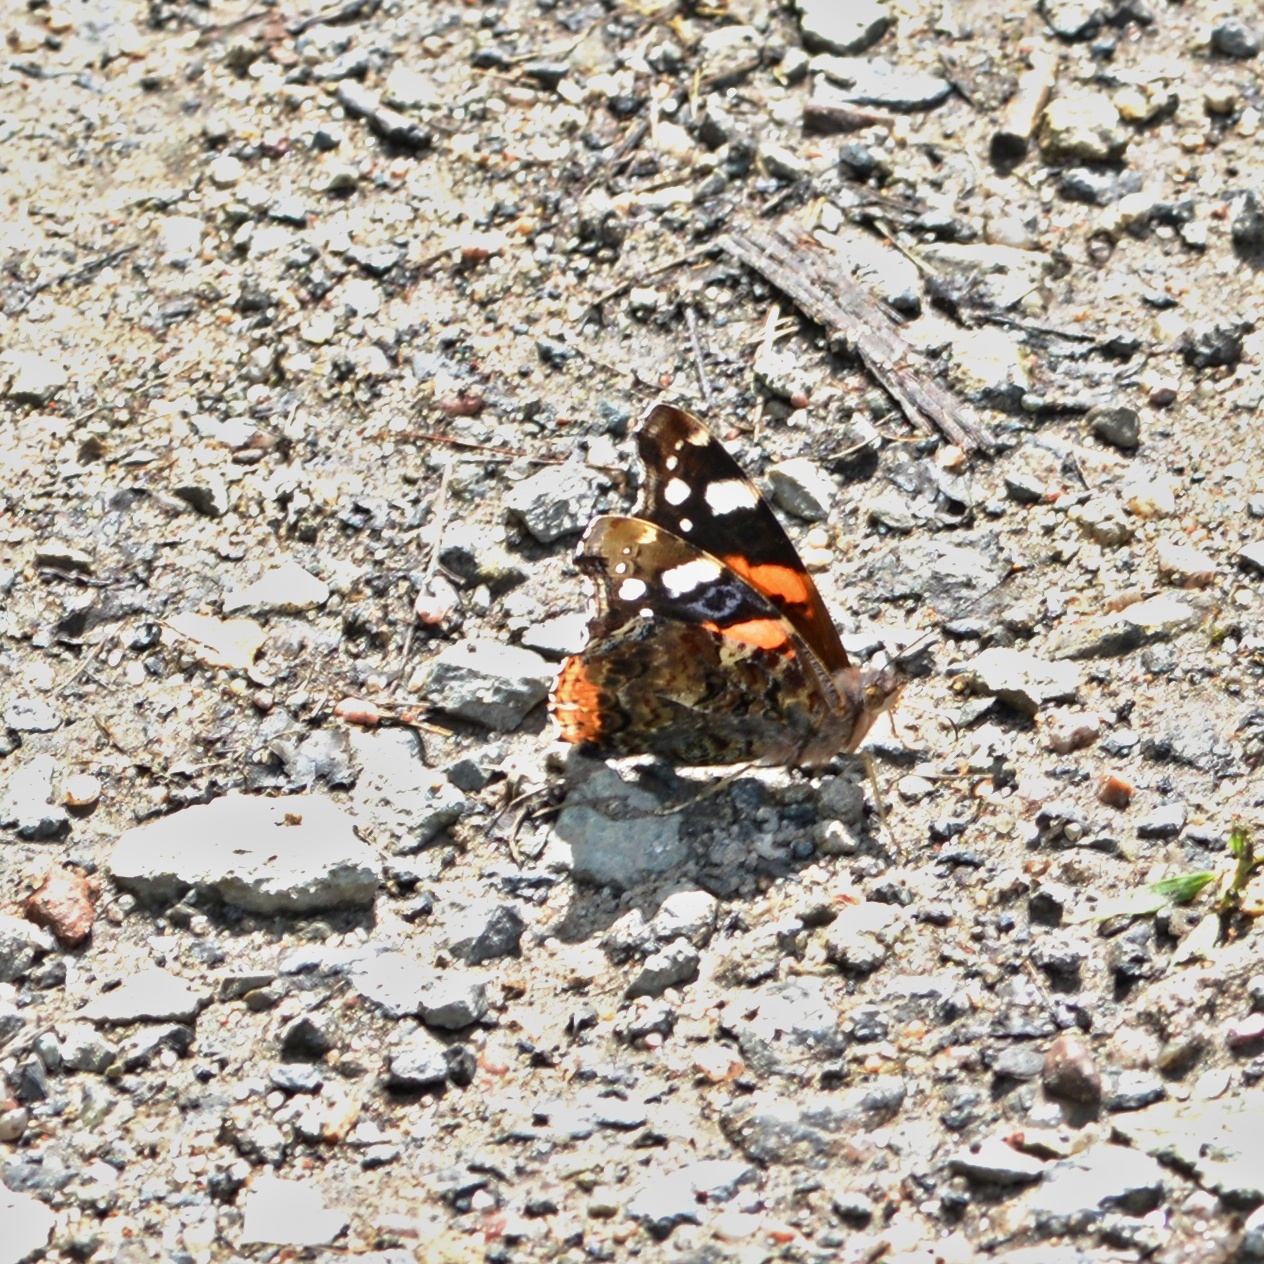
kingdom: Animalia
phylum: Arthropoda
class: Insecta
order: Lepidoptera
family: Nymphalidae
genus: Vanessa
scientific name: Vanessa atalanta
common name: Red admiral
